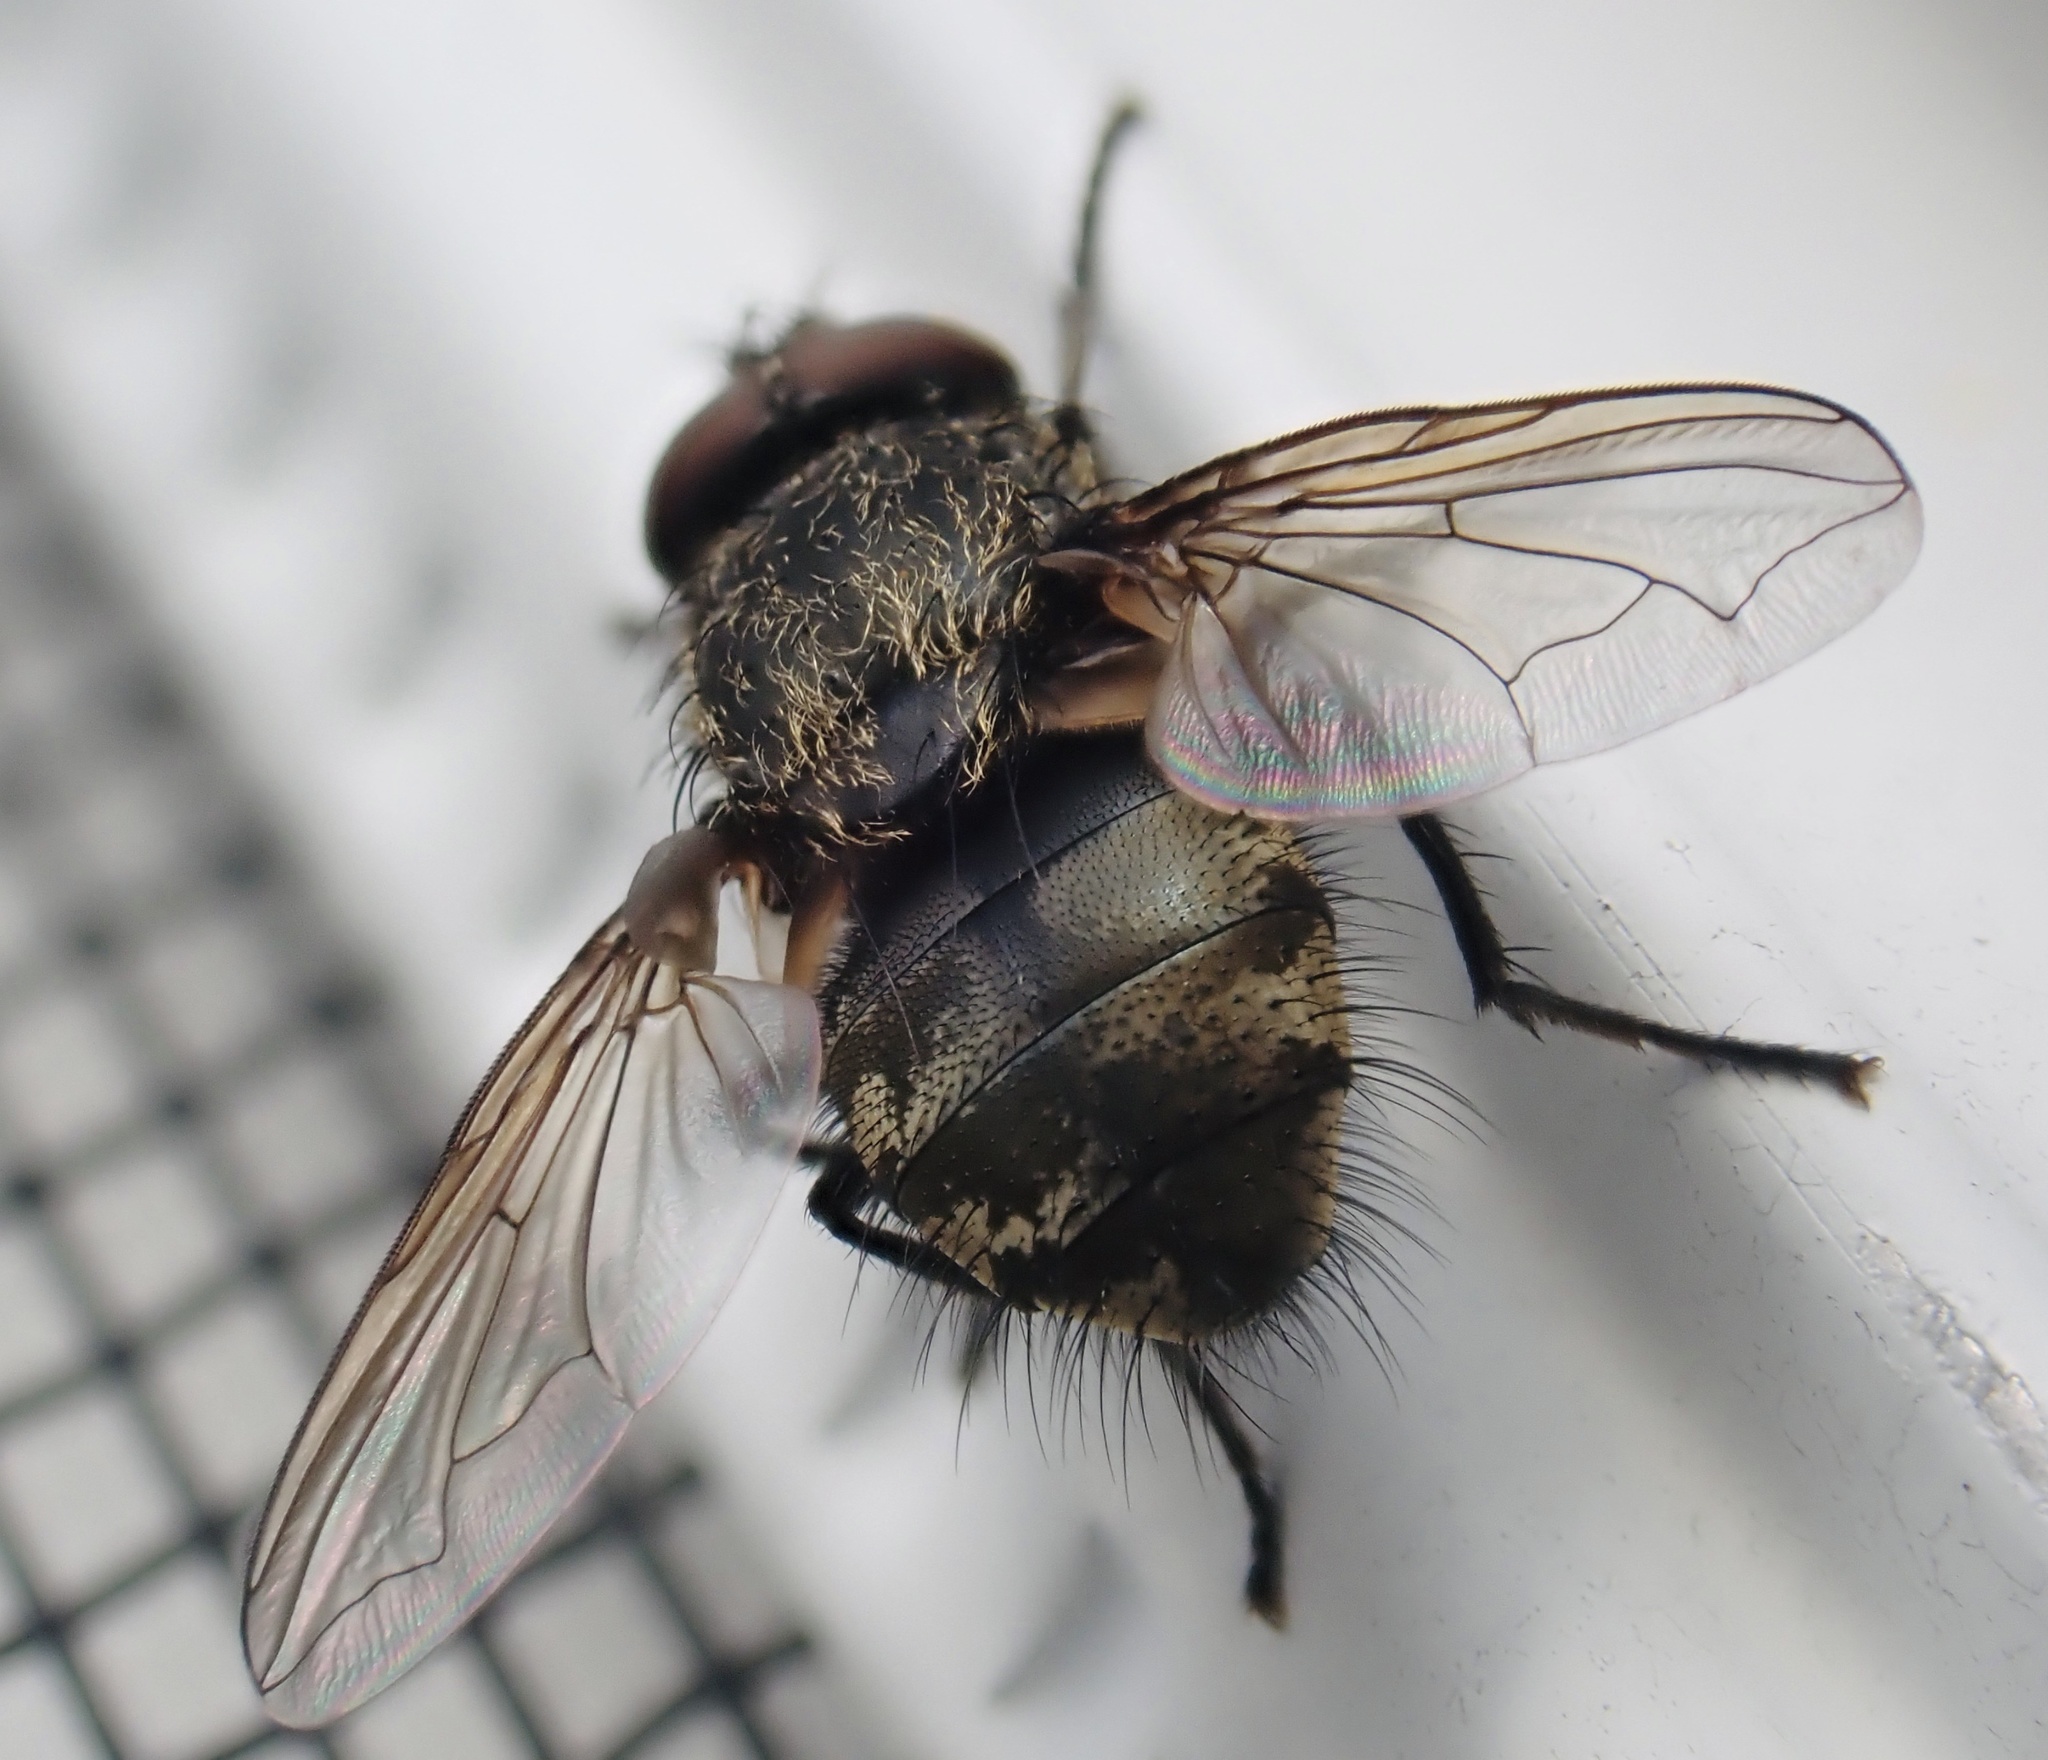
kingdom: Animalia
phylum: Arthropoda
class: Insecta
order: Diptera
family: Polleniidae
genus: Pollenia
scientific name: Pollenia
